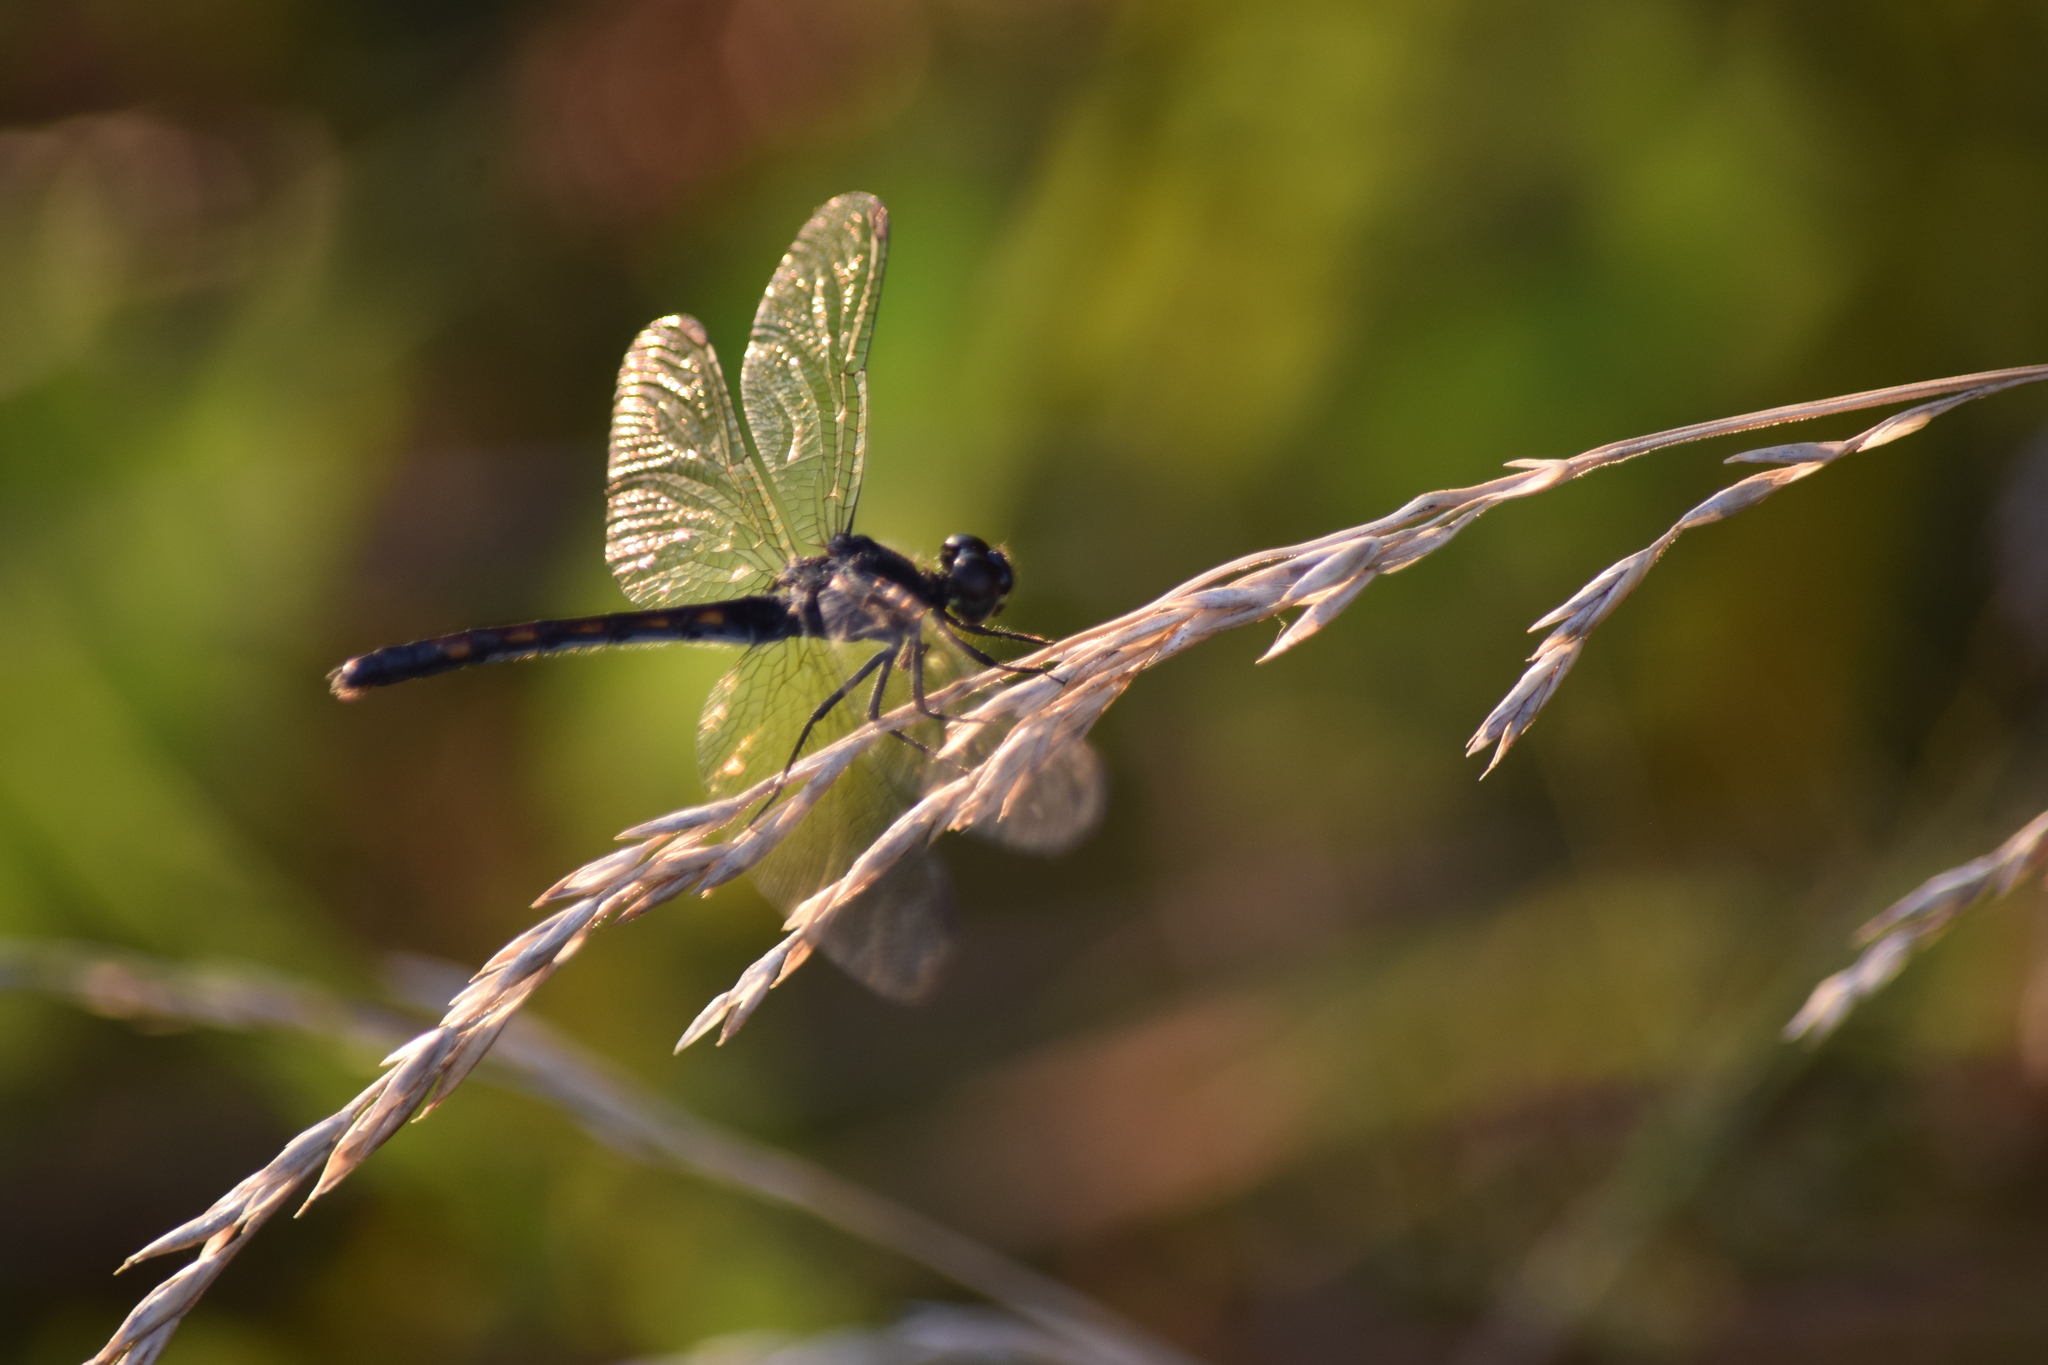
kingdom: Animalia
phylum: Arthropoda
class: Insecta
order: Odonata
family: Libellulidae
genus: Erythrodiplax
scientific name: Erythrodiplax berenice
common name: Seaside dragonlet
